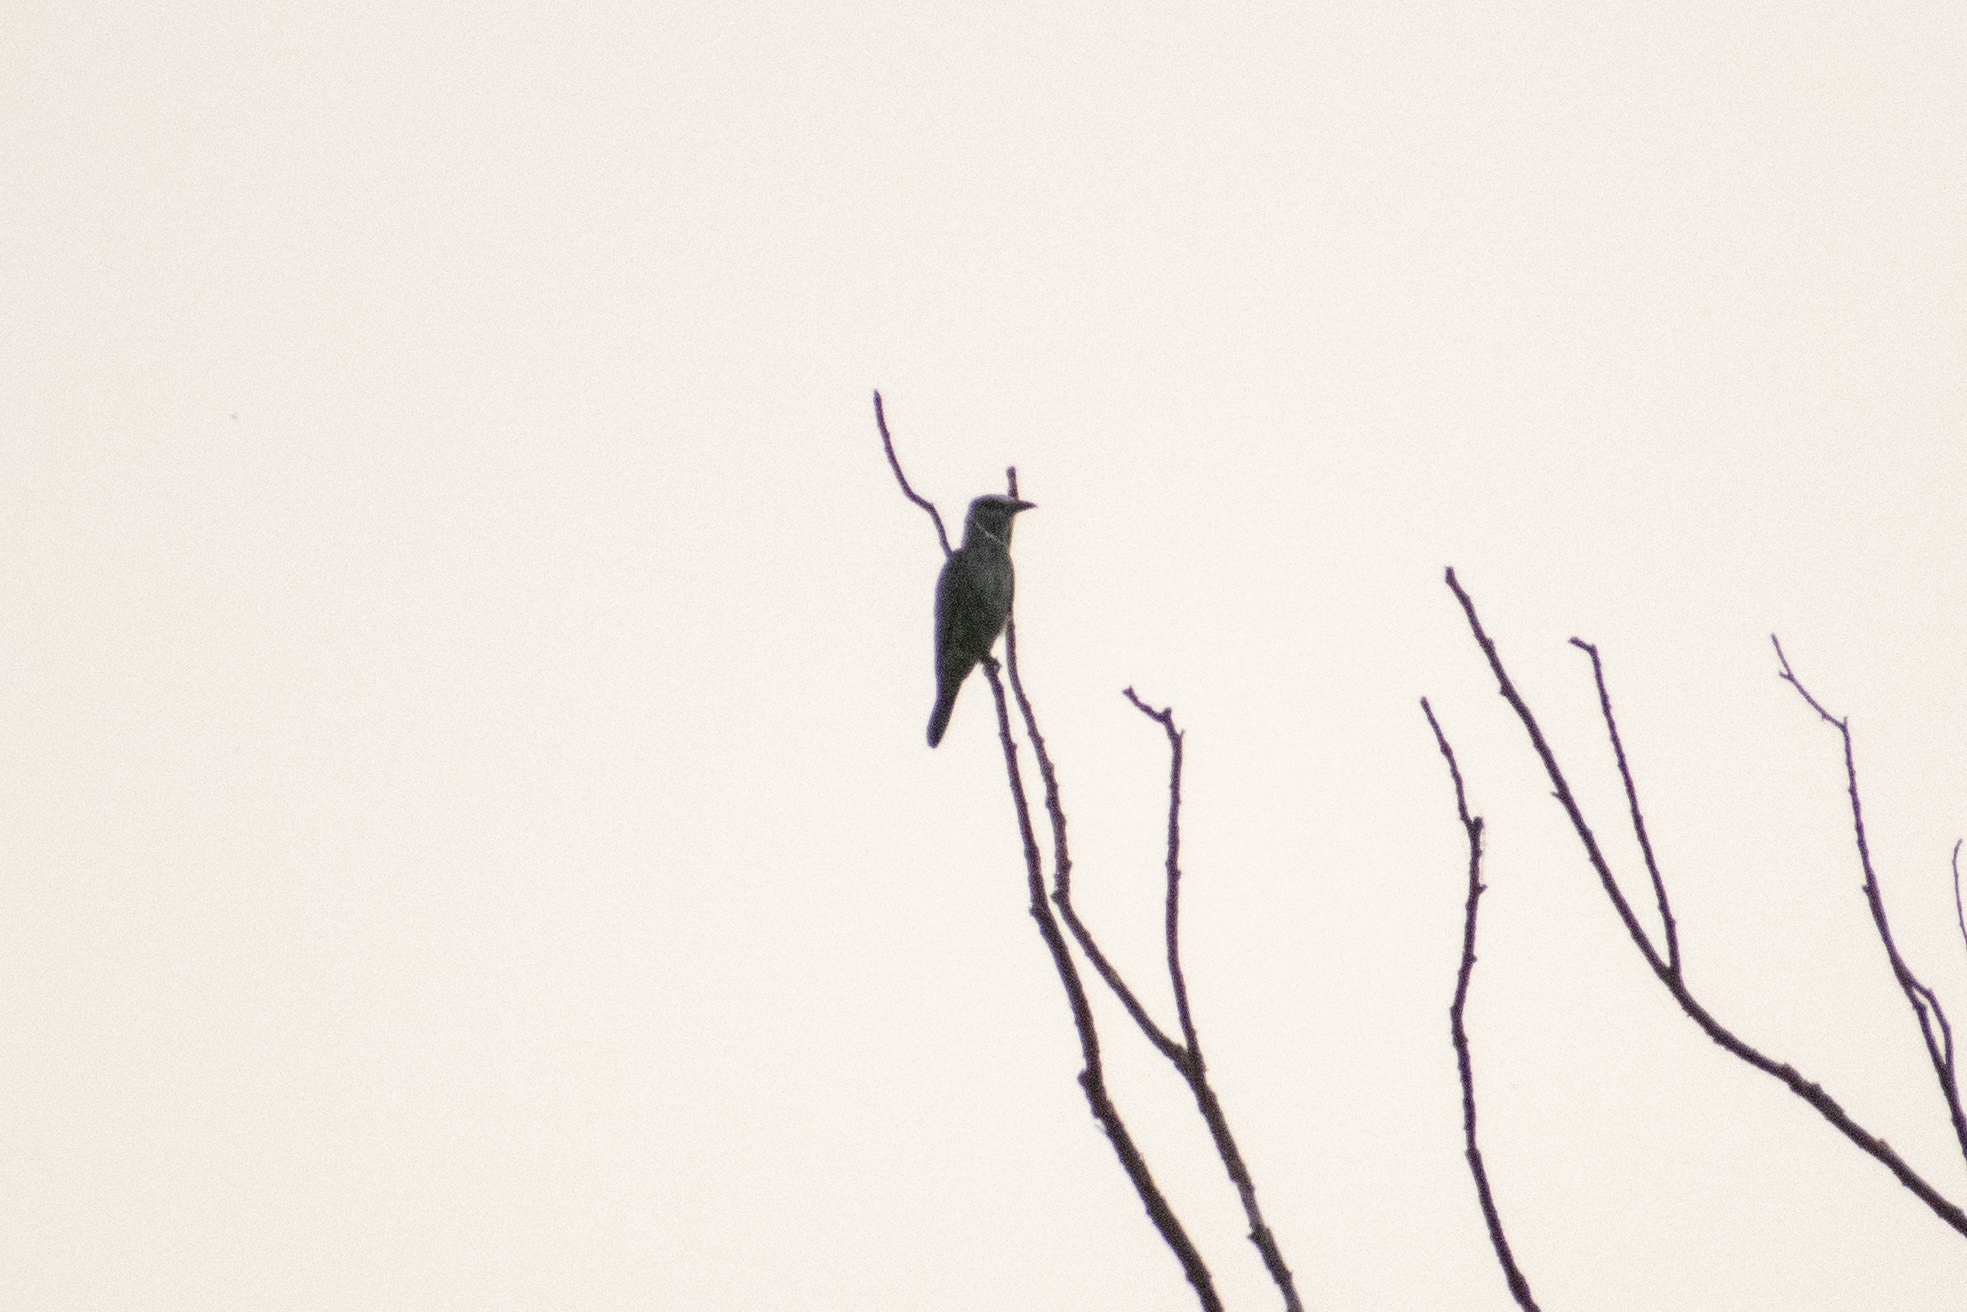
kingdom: Animalia
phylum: Chordata
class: Aves
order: Coraciiformes
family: Coraciidae
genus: Coracias
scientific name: Coracias garrulus
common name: European roller
